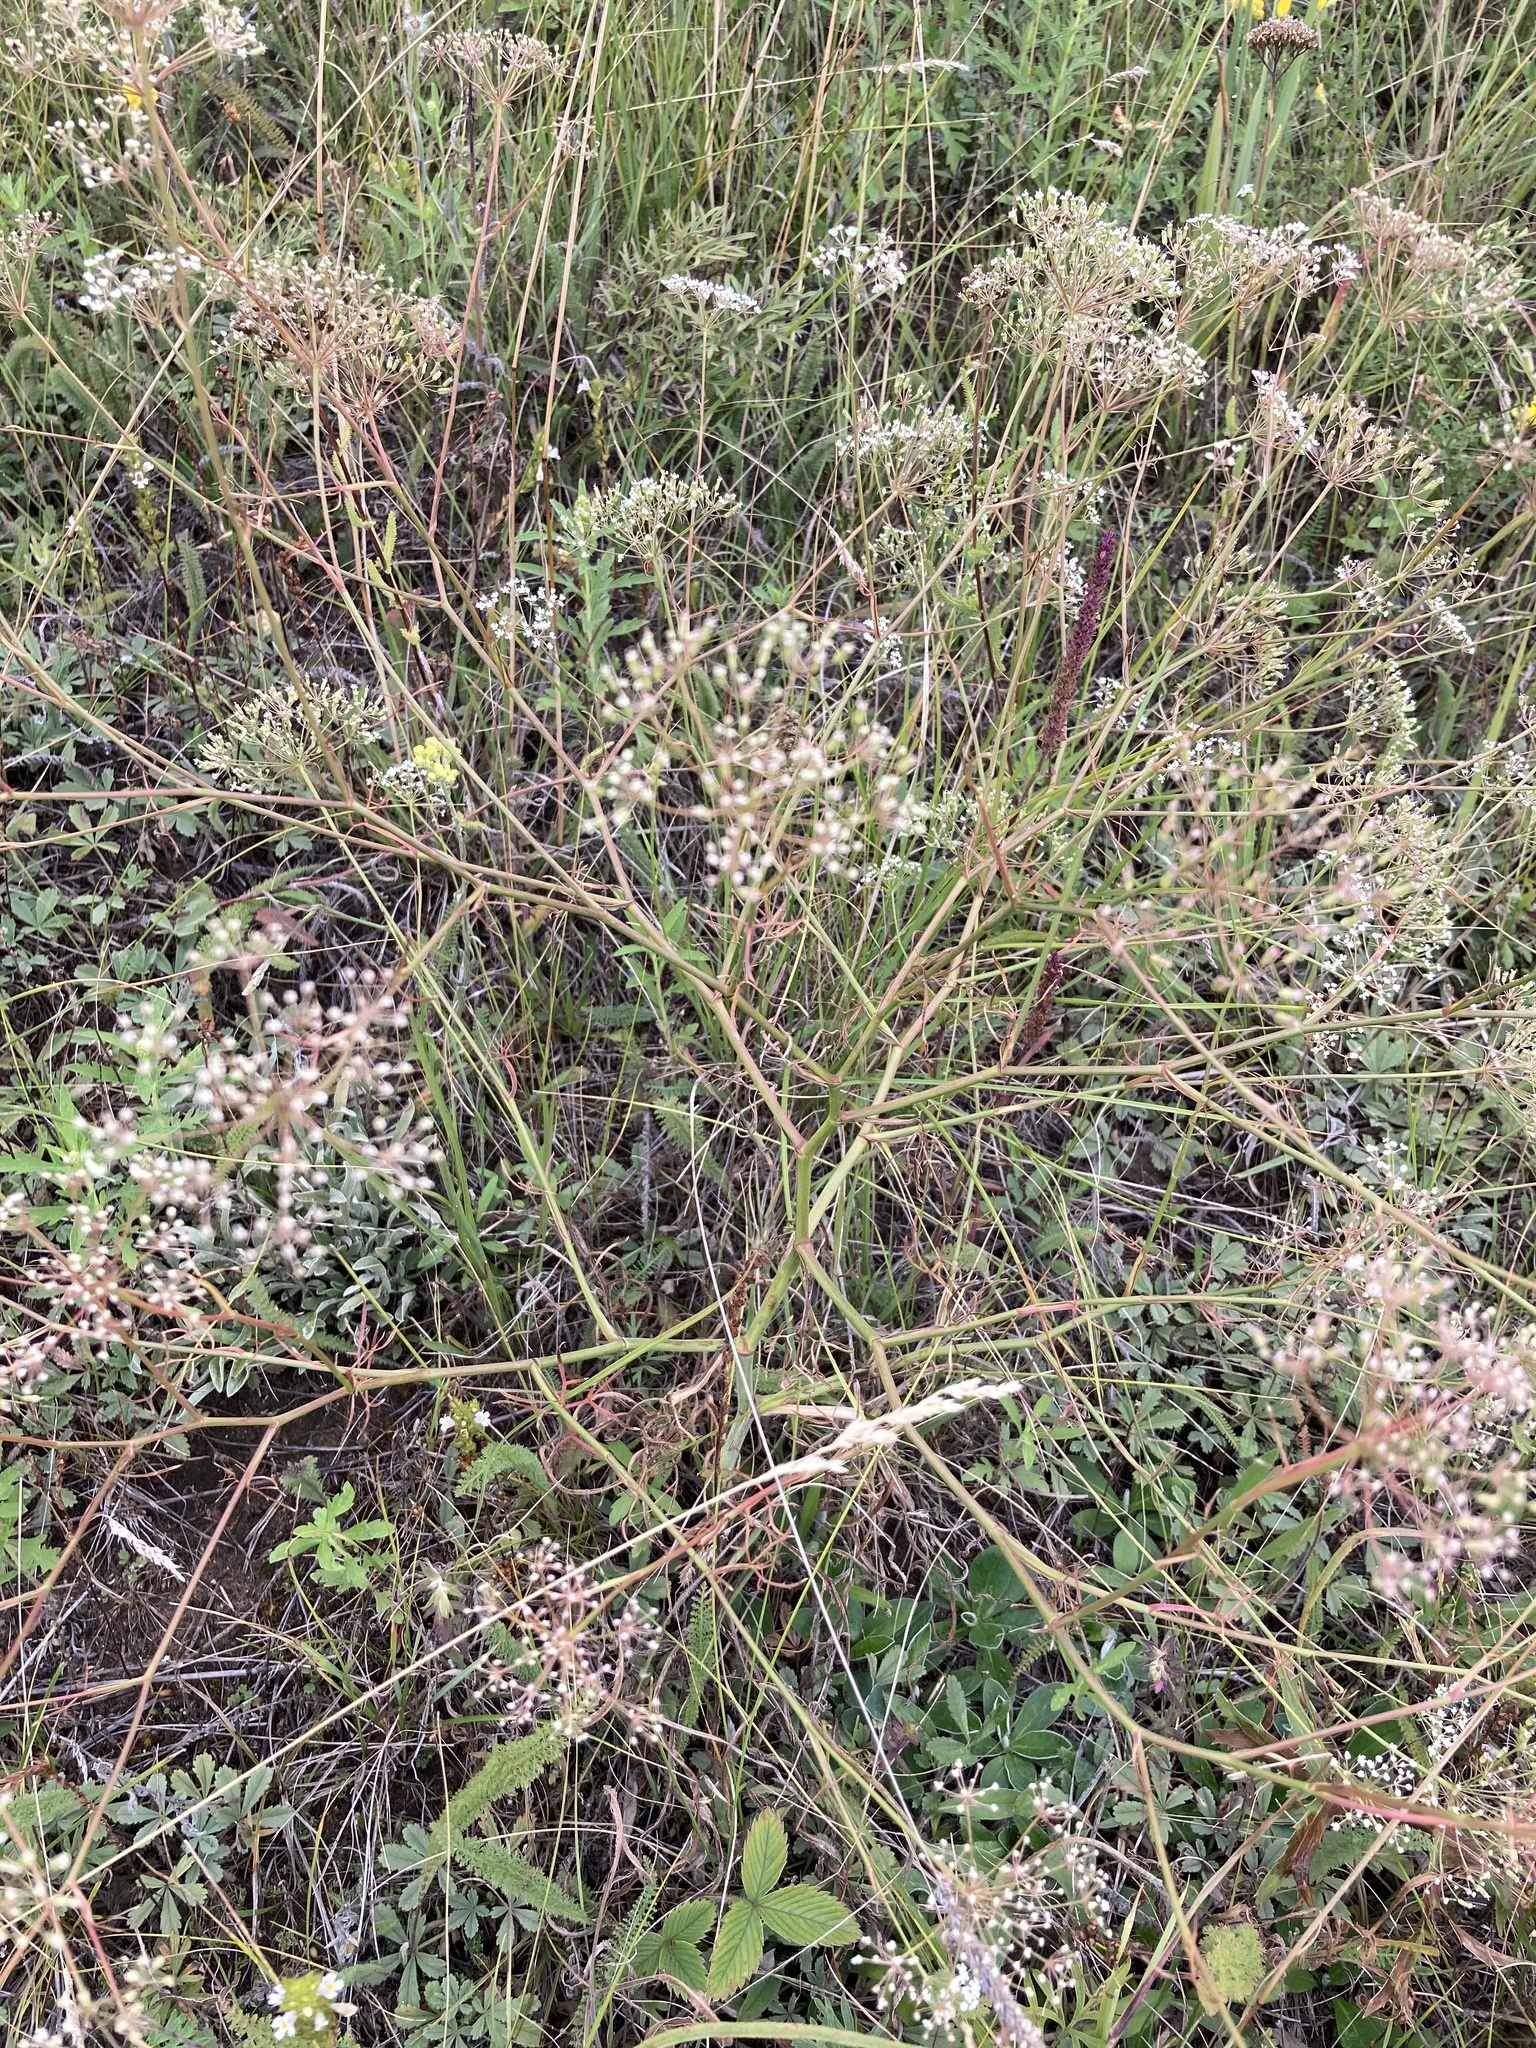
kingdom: Plantae
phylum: Tracheophyta
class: Magnoliopsida
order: Apiales
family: Apiaceae
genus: Falcaria
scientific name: Falcaria vulgaris
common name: Longleaf
